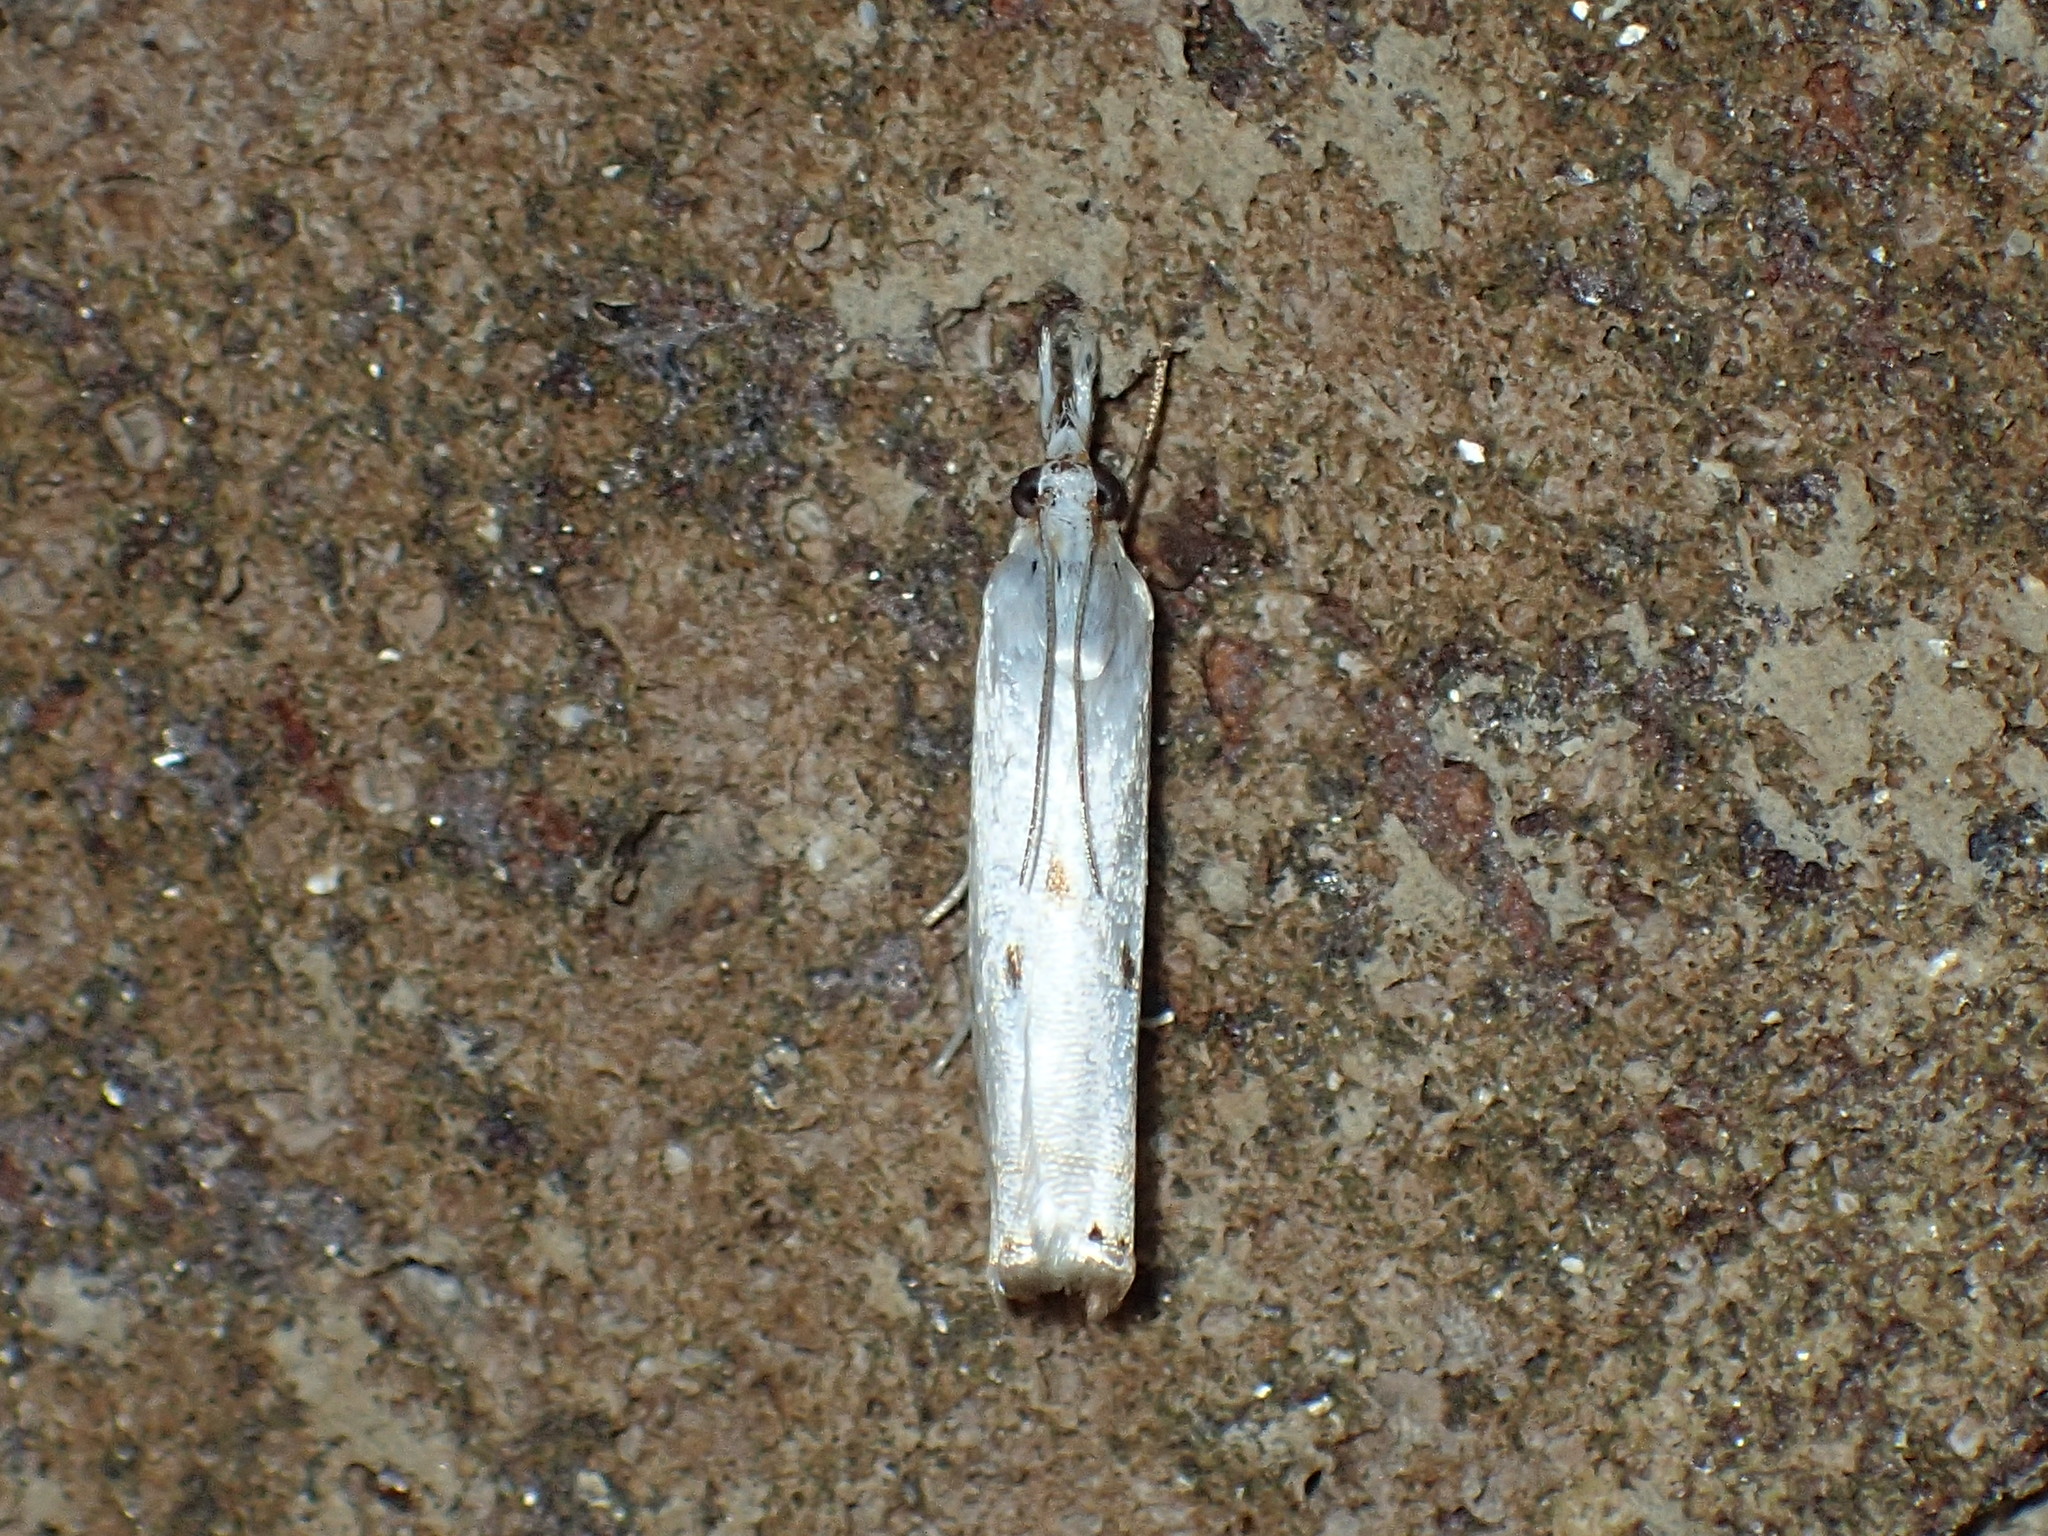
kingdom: Animalia
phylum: Arthropoda
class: Insecta
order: Lepidoptera
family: Crambidae
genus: Microcrambus
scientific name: Microcrambus biguttellus
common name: Gold-stripe grass-veneer moth
